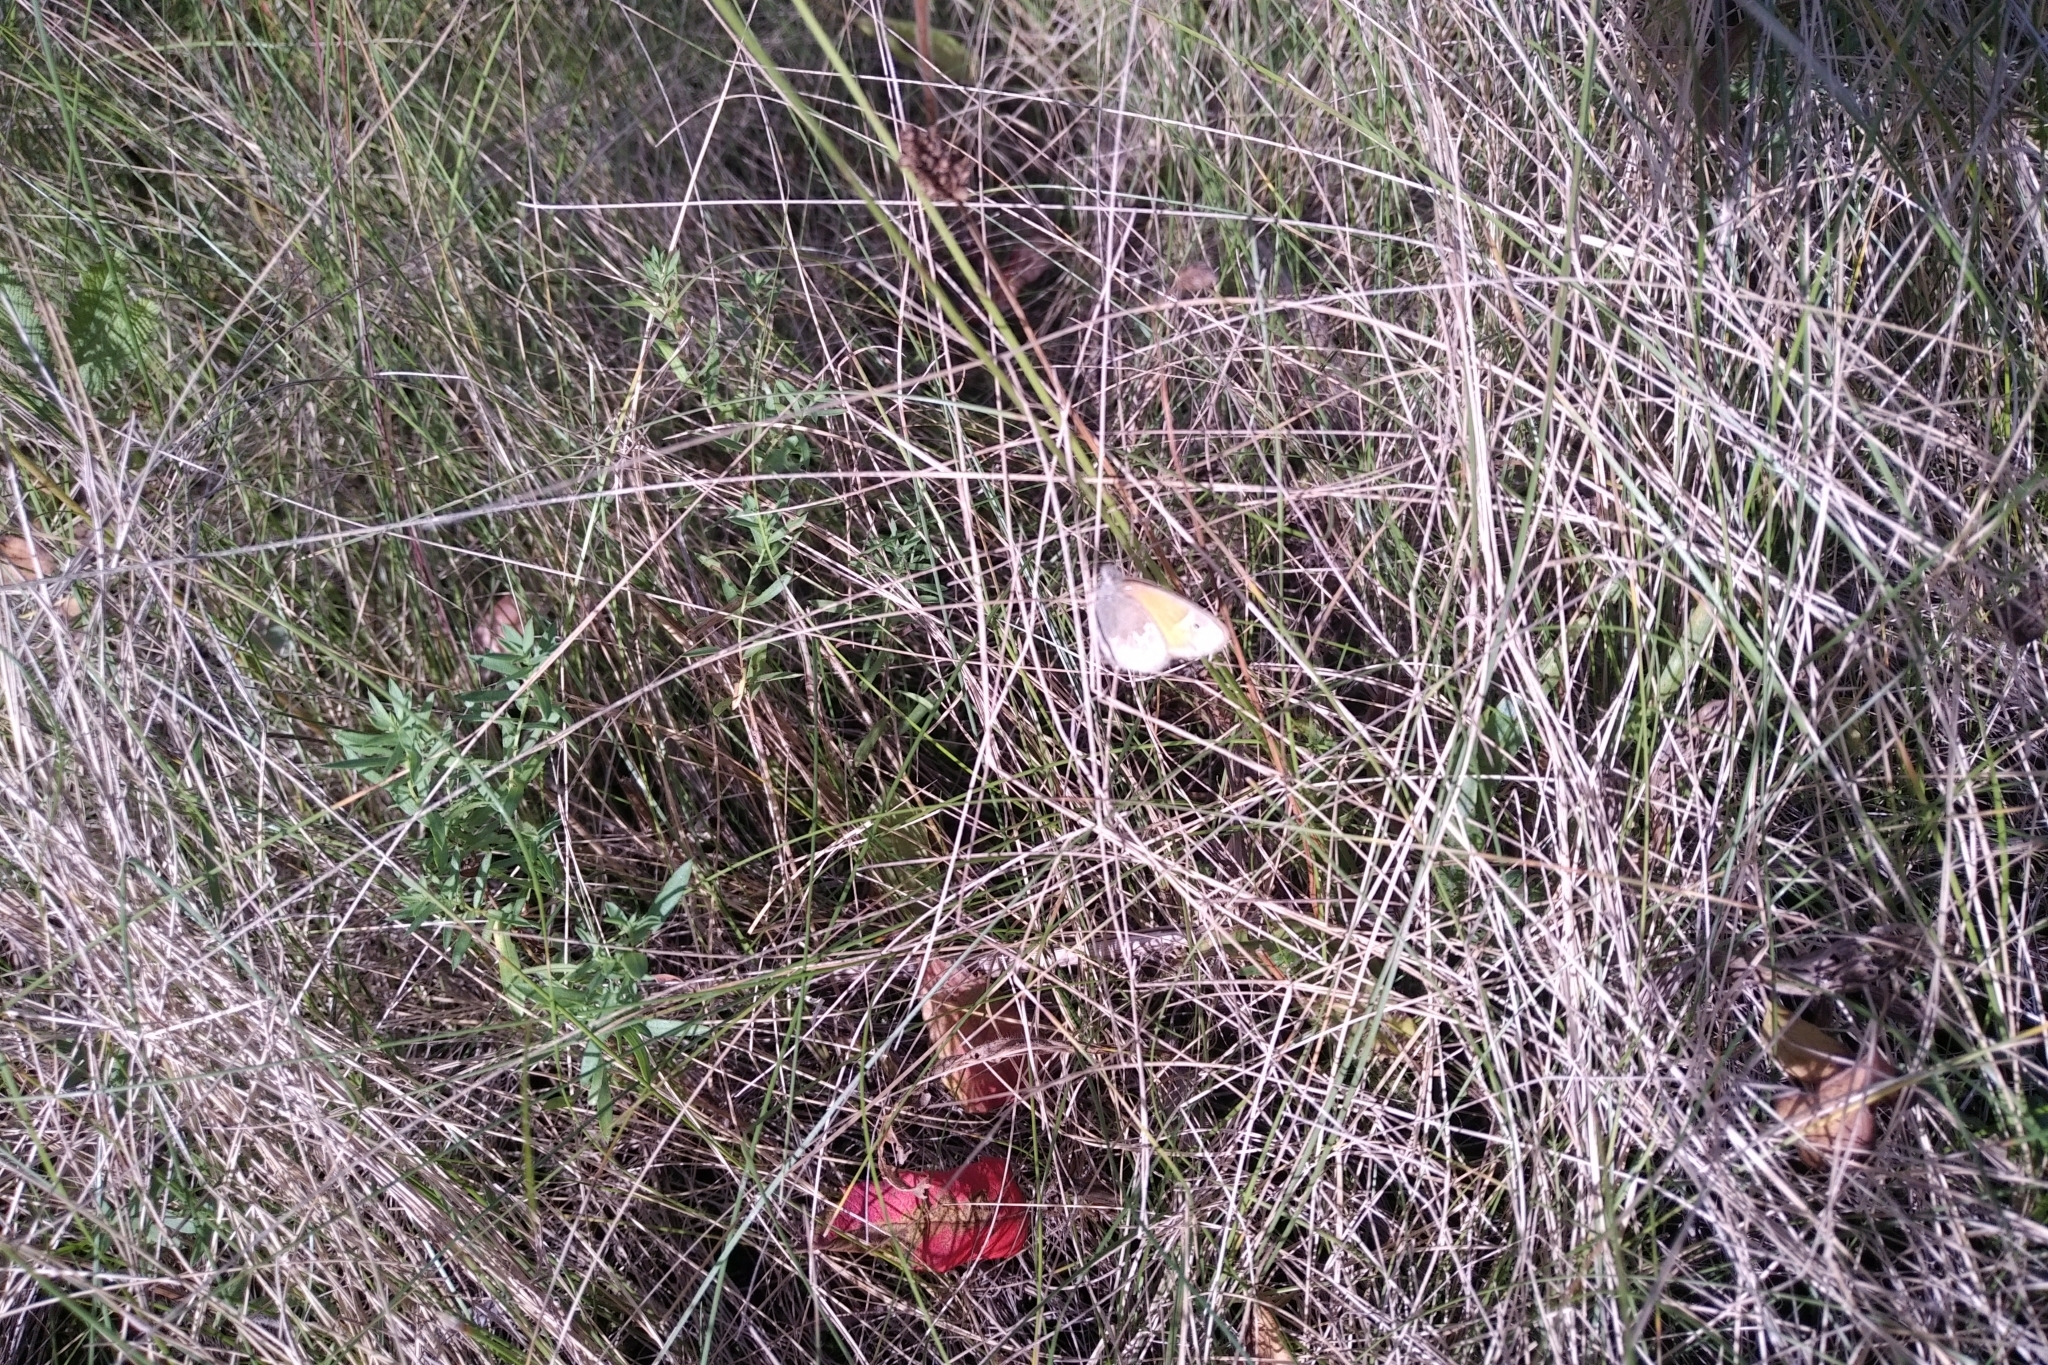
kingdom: Animalia
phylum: Arthropoda
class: Insecta
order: Lepidoptera
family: Nymphalidae
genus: Coenonympha
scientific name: Coenonympha california
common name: Common ringlet
